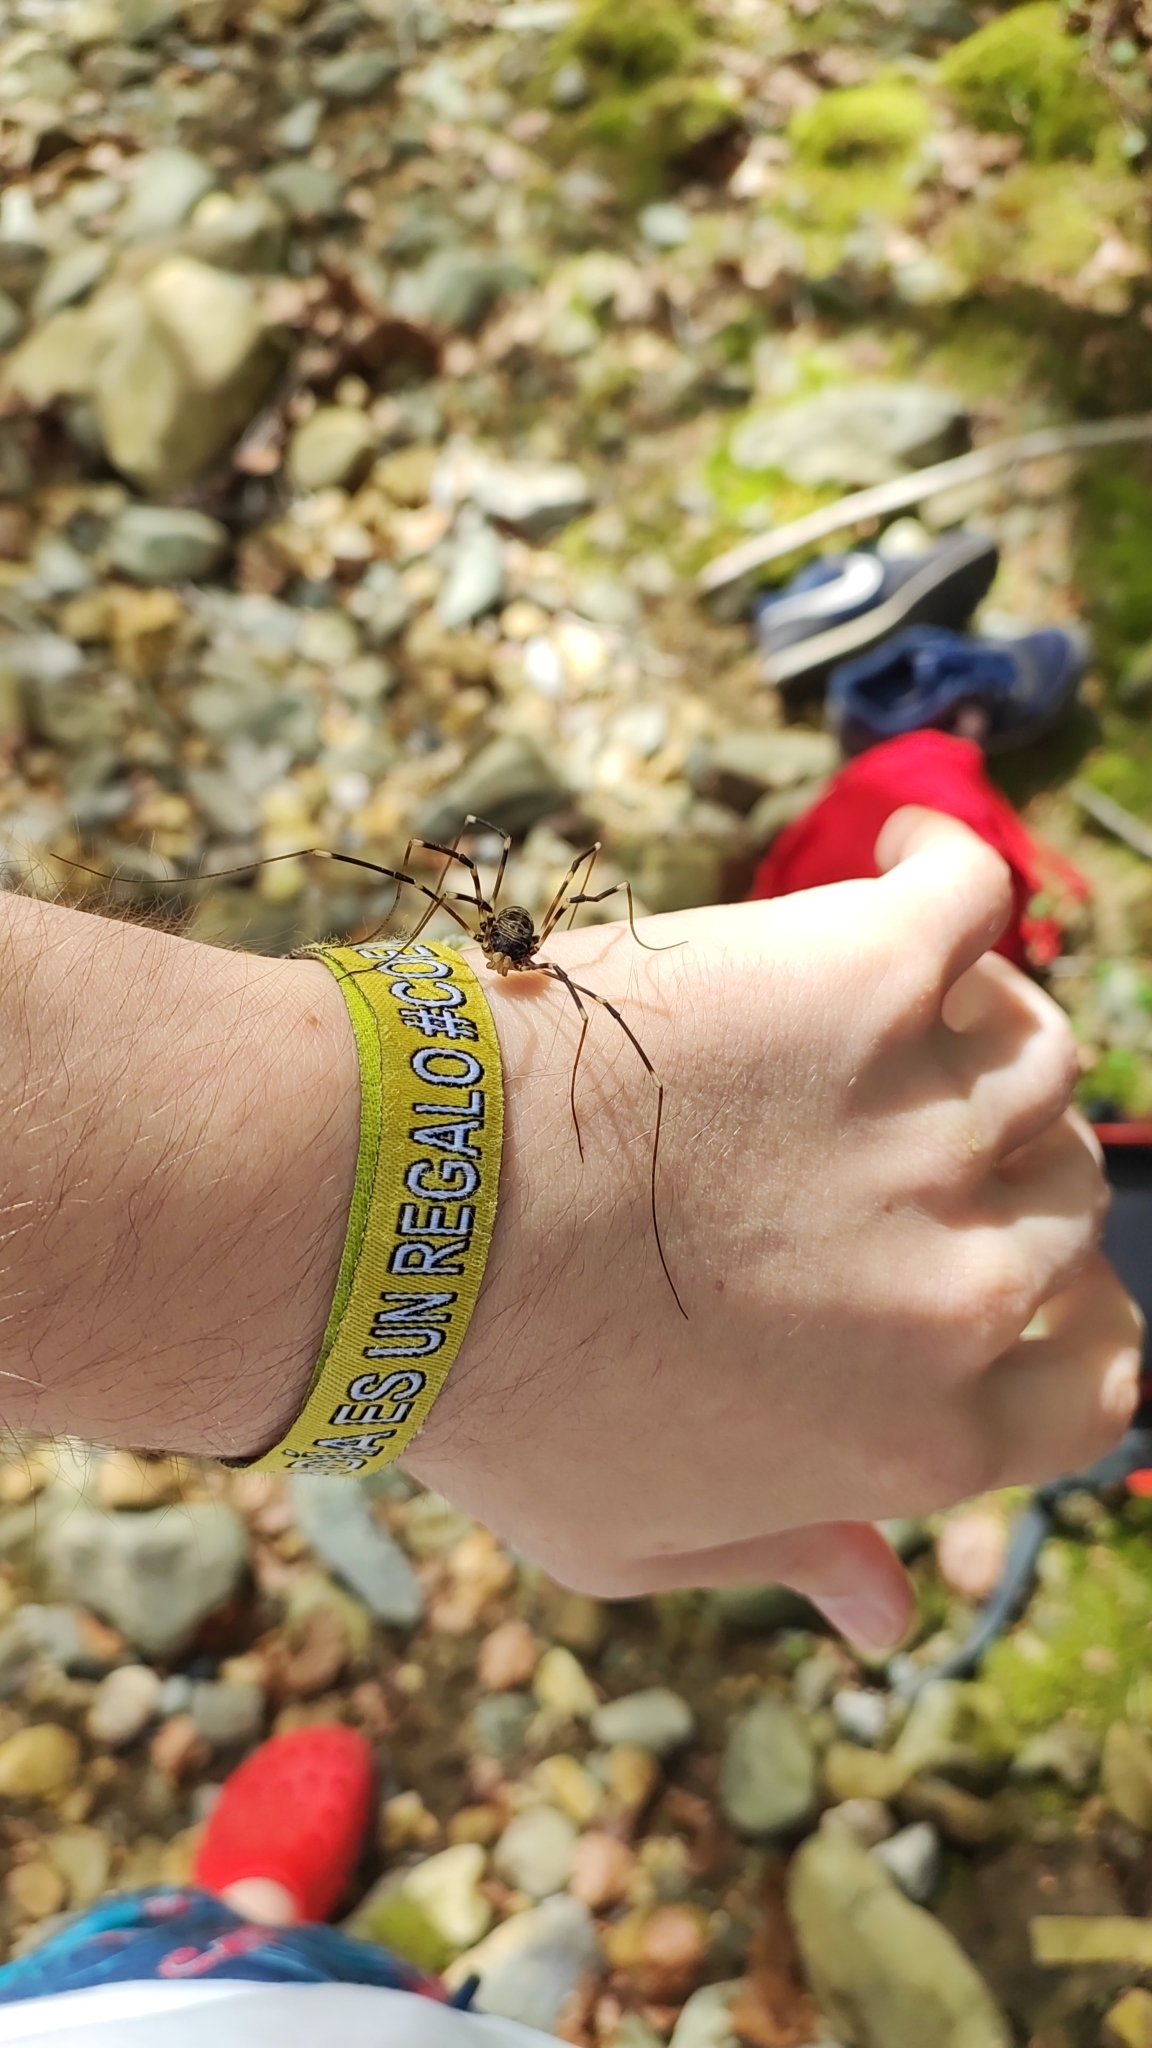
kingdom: Animalia
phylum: Arthropoda
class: Arachnida
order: Opiliones
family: Sclerosomatidae
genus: Gyas
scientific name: Gyas titanus
